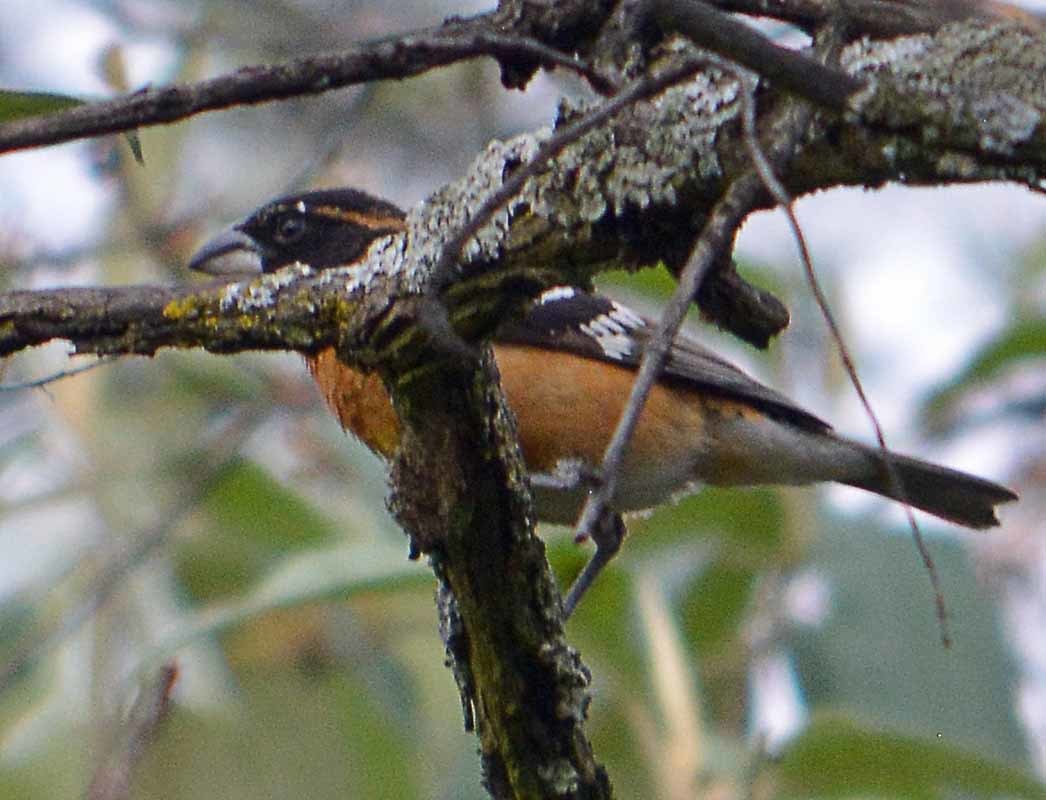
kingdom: Animalia
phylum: Chordata
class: Aves
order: Passeriformes
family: Cardinalidae
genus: Pheucticus
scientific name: Pheucticus melanocephalus
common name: Black-headed grosbeak
